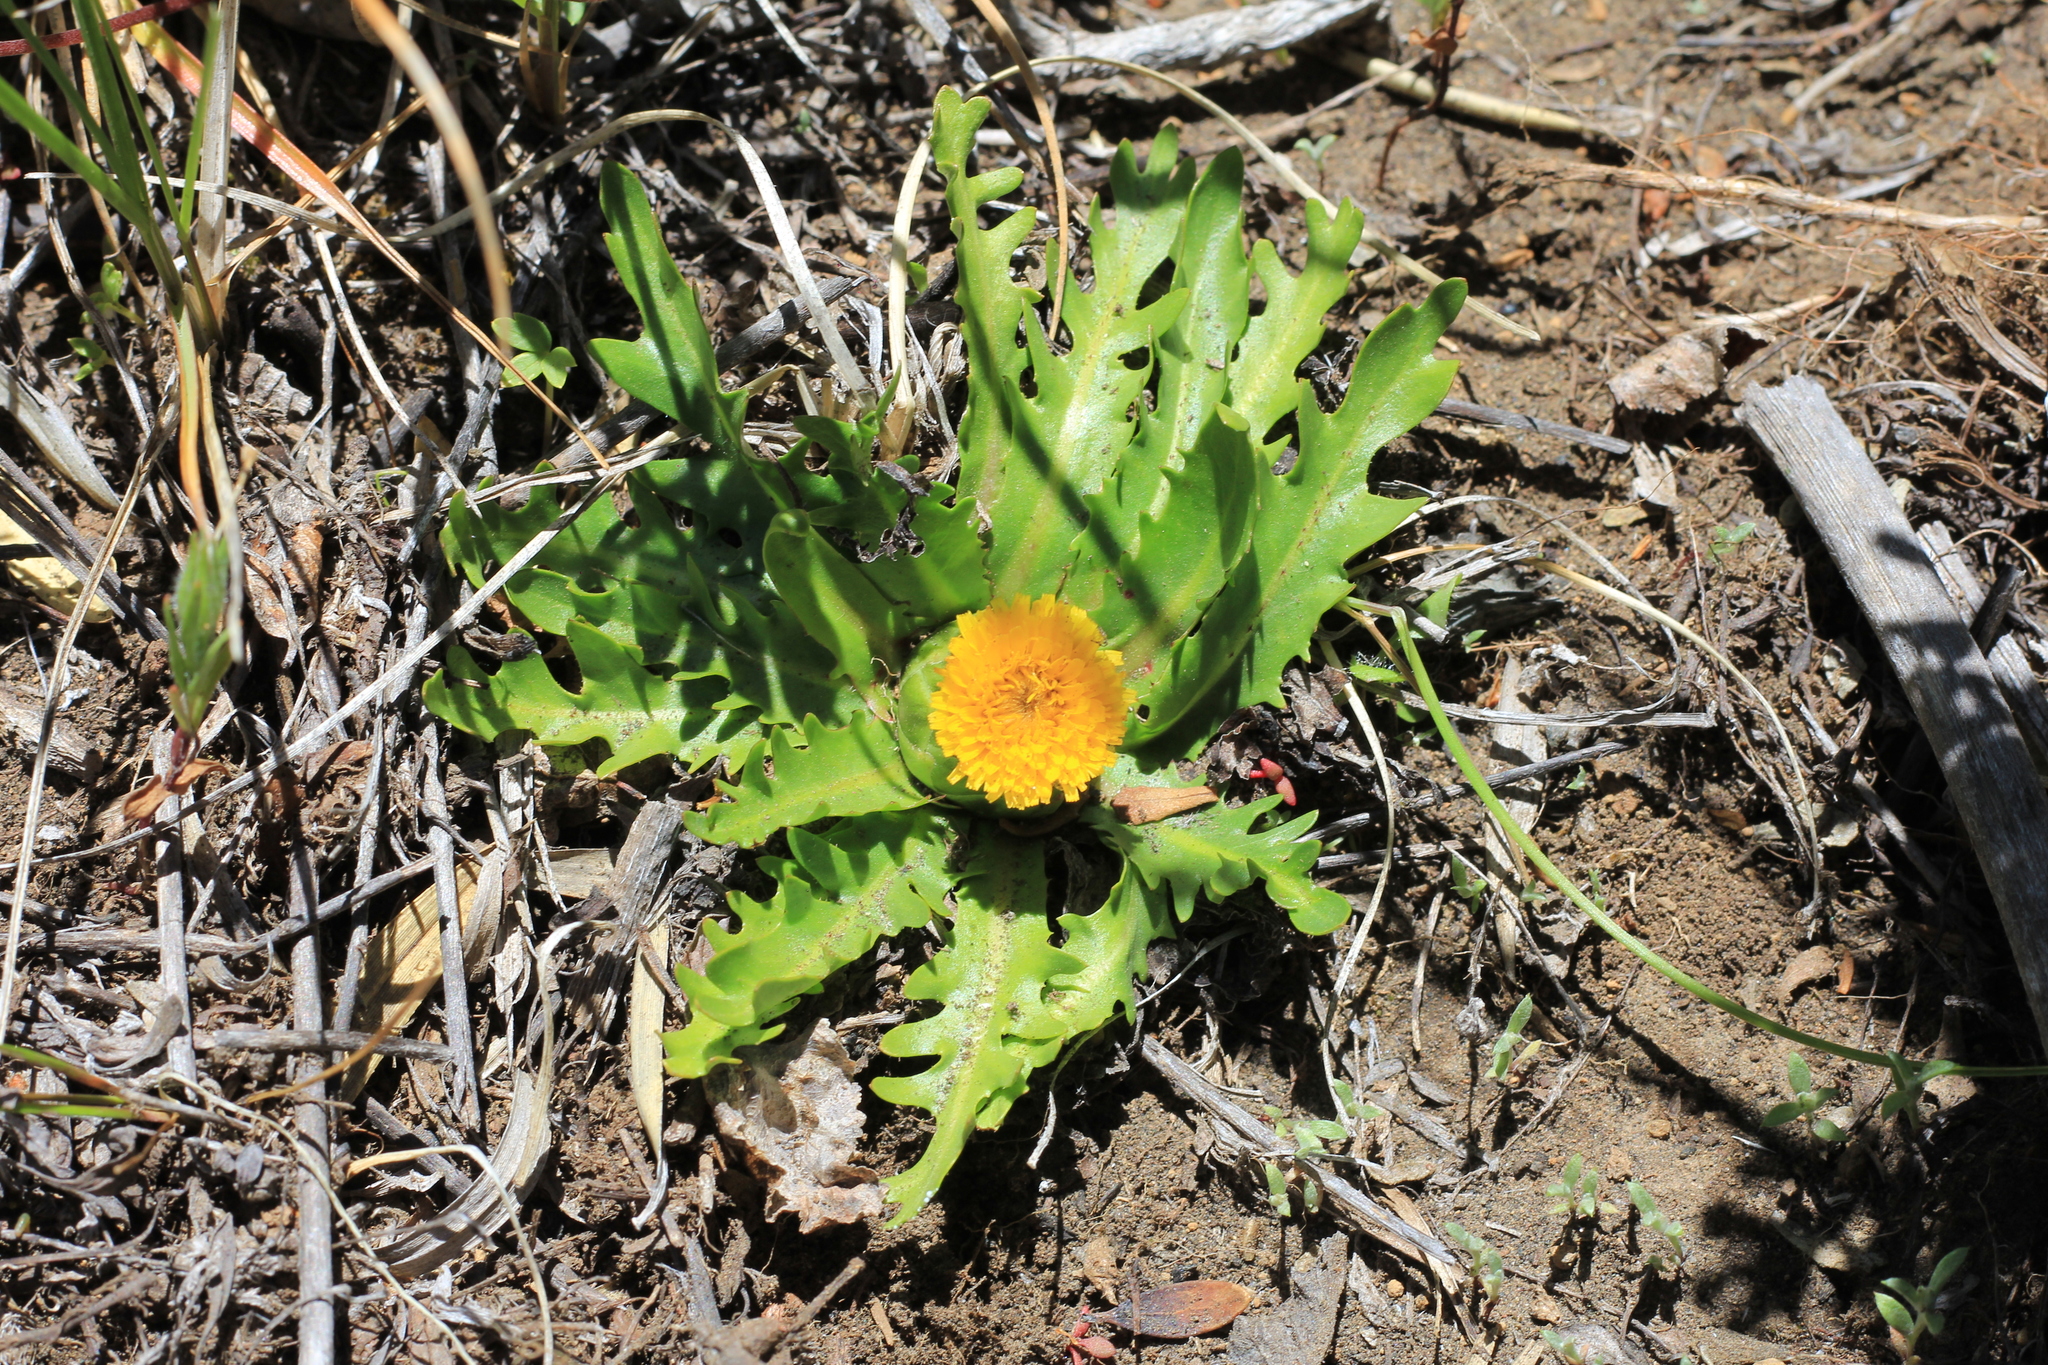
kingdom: Plantae
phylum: Tracheophyta
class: Magnoliopsida
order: Asterales
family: Asteraceae
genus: Hypochaeris
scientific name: Hypochaeris acaulis
